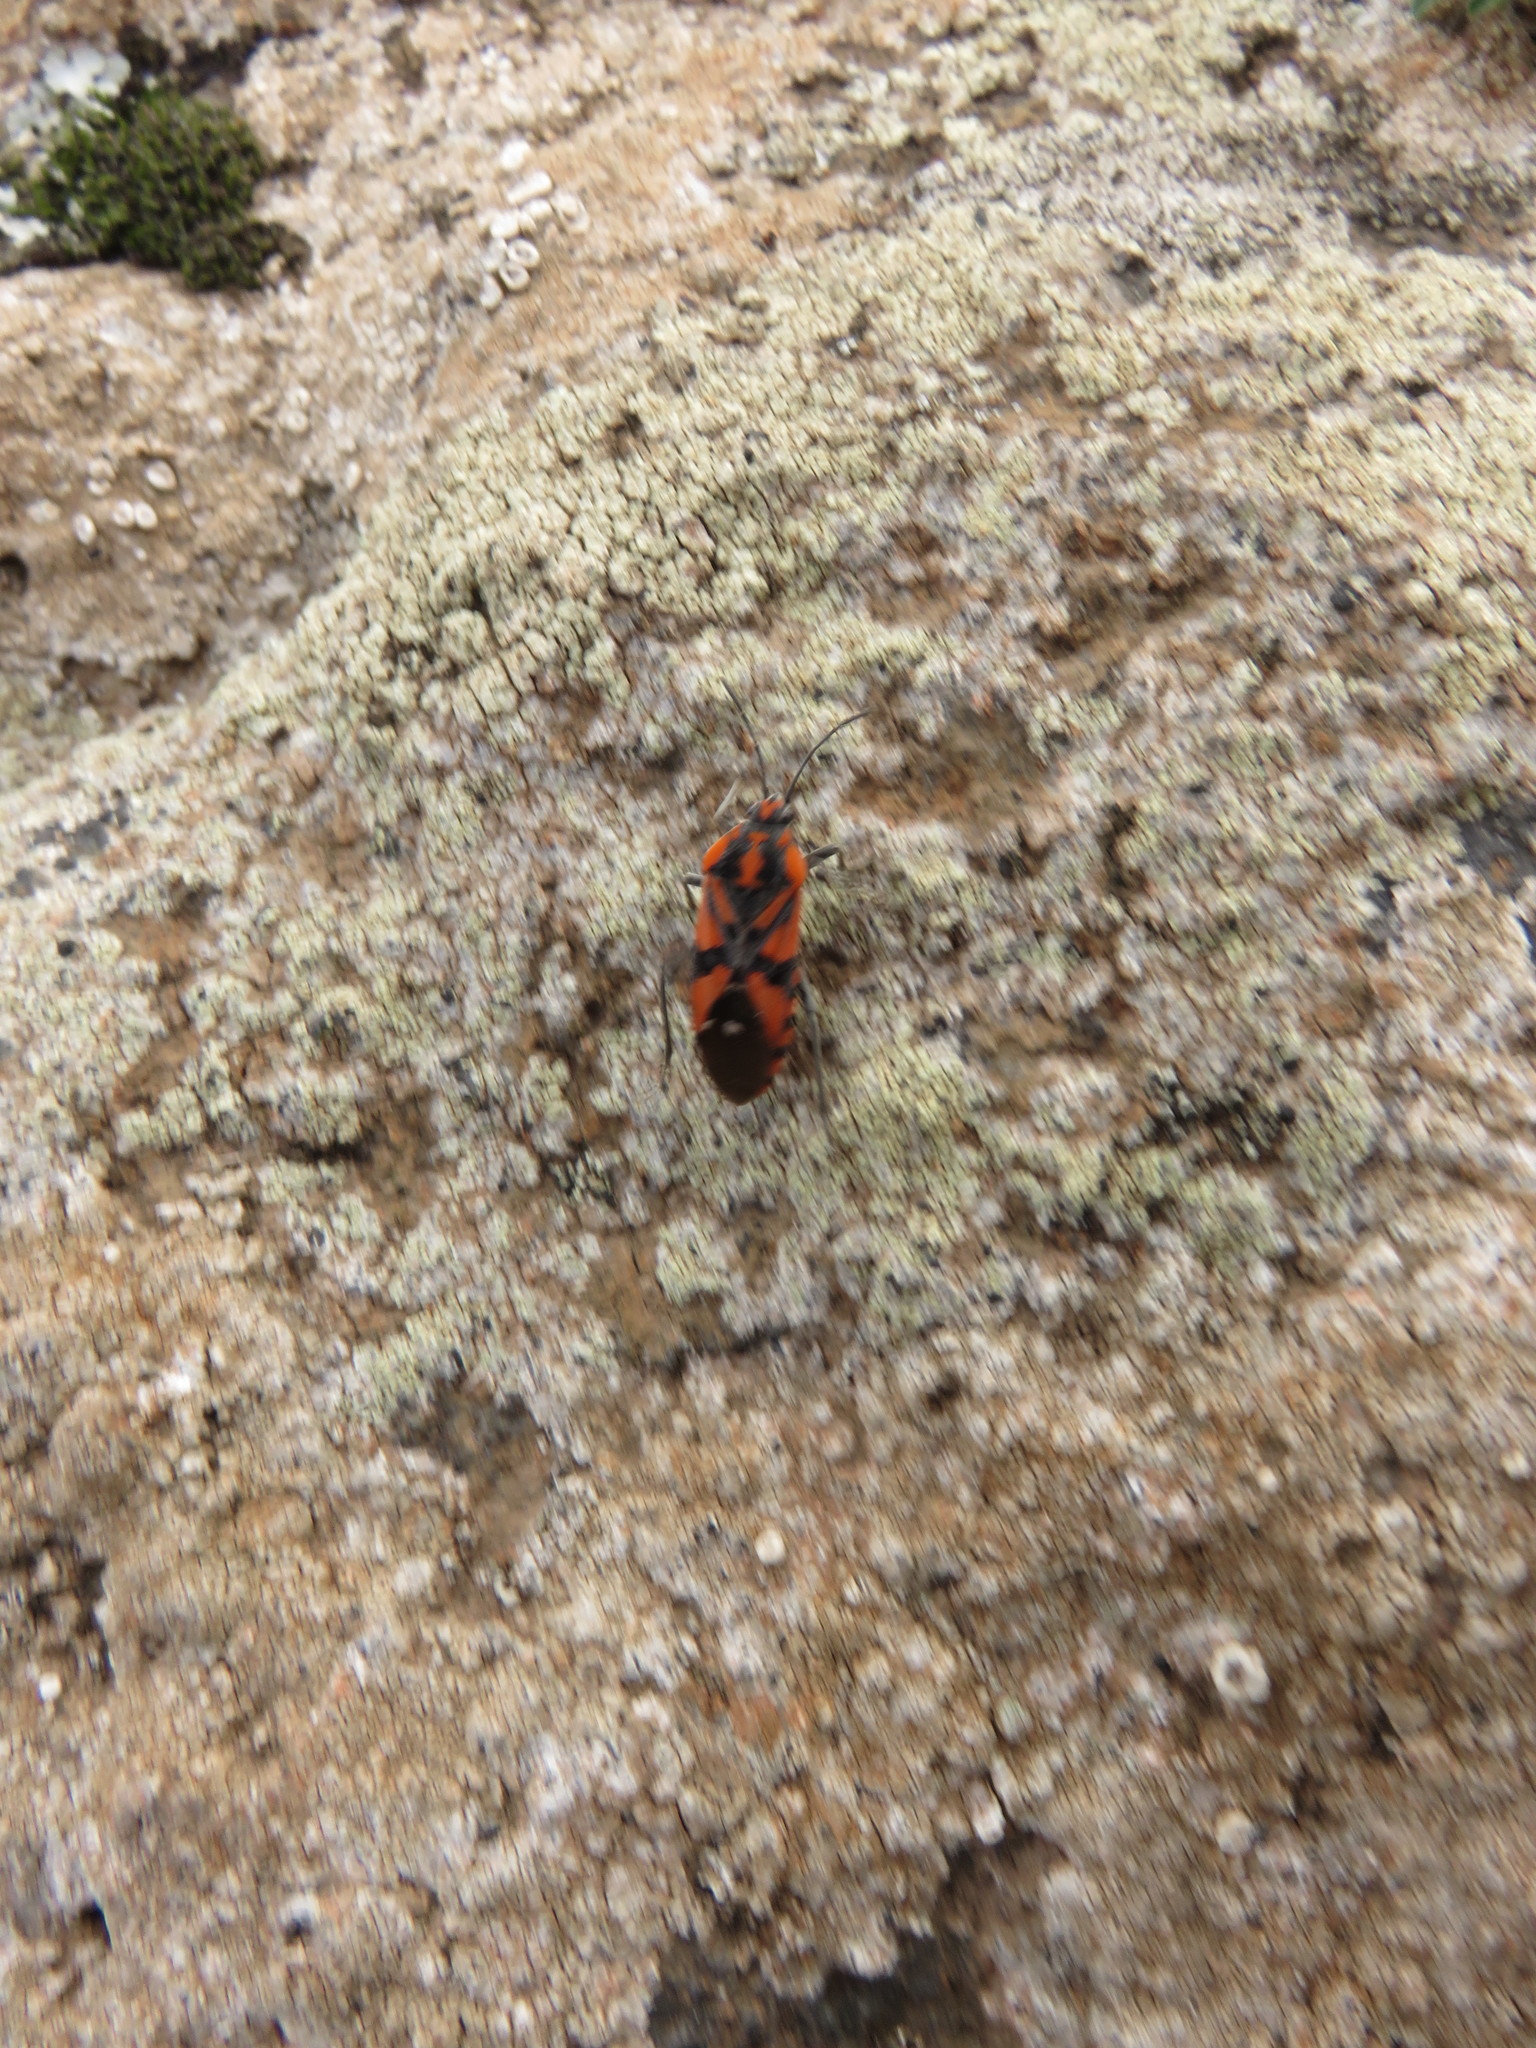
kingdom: Animalia
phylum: Arthropoda
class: Insecta
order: Hemiptera
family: Lygaeidae
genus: Spilostethus
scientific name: Spilostethus pandurus
